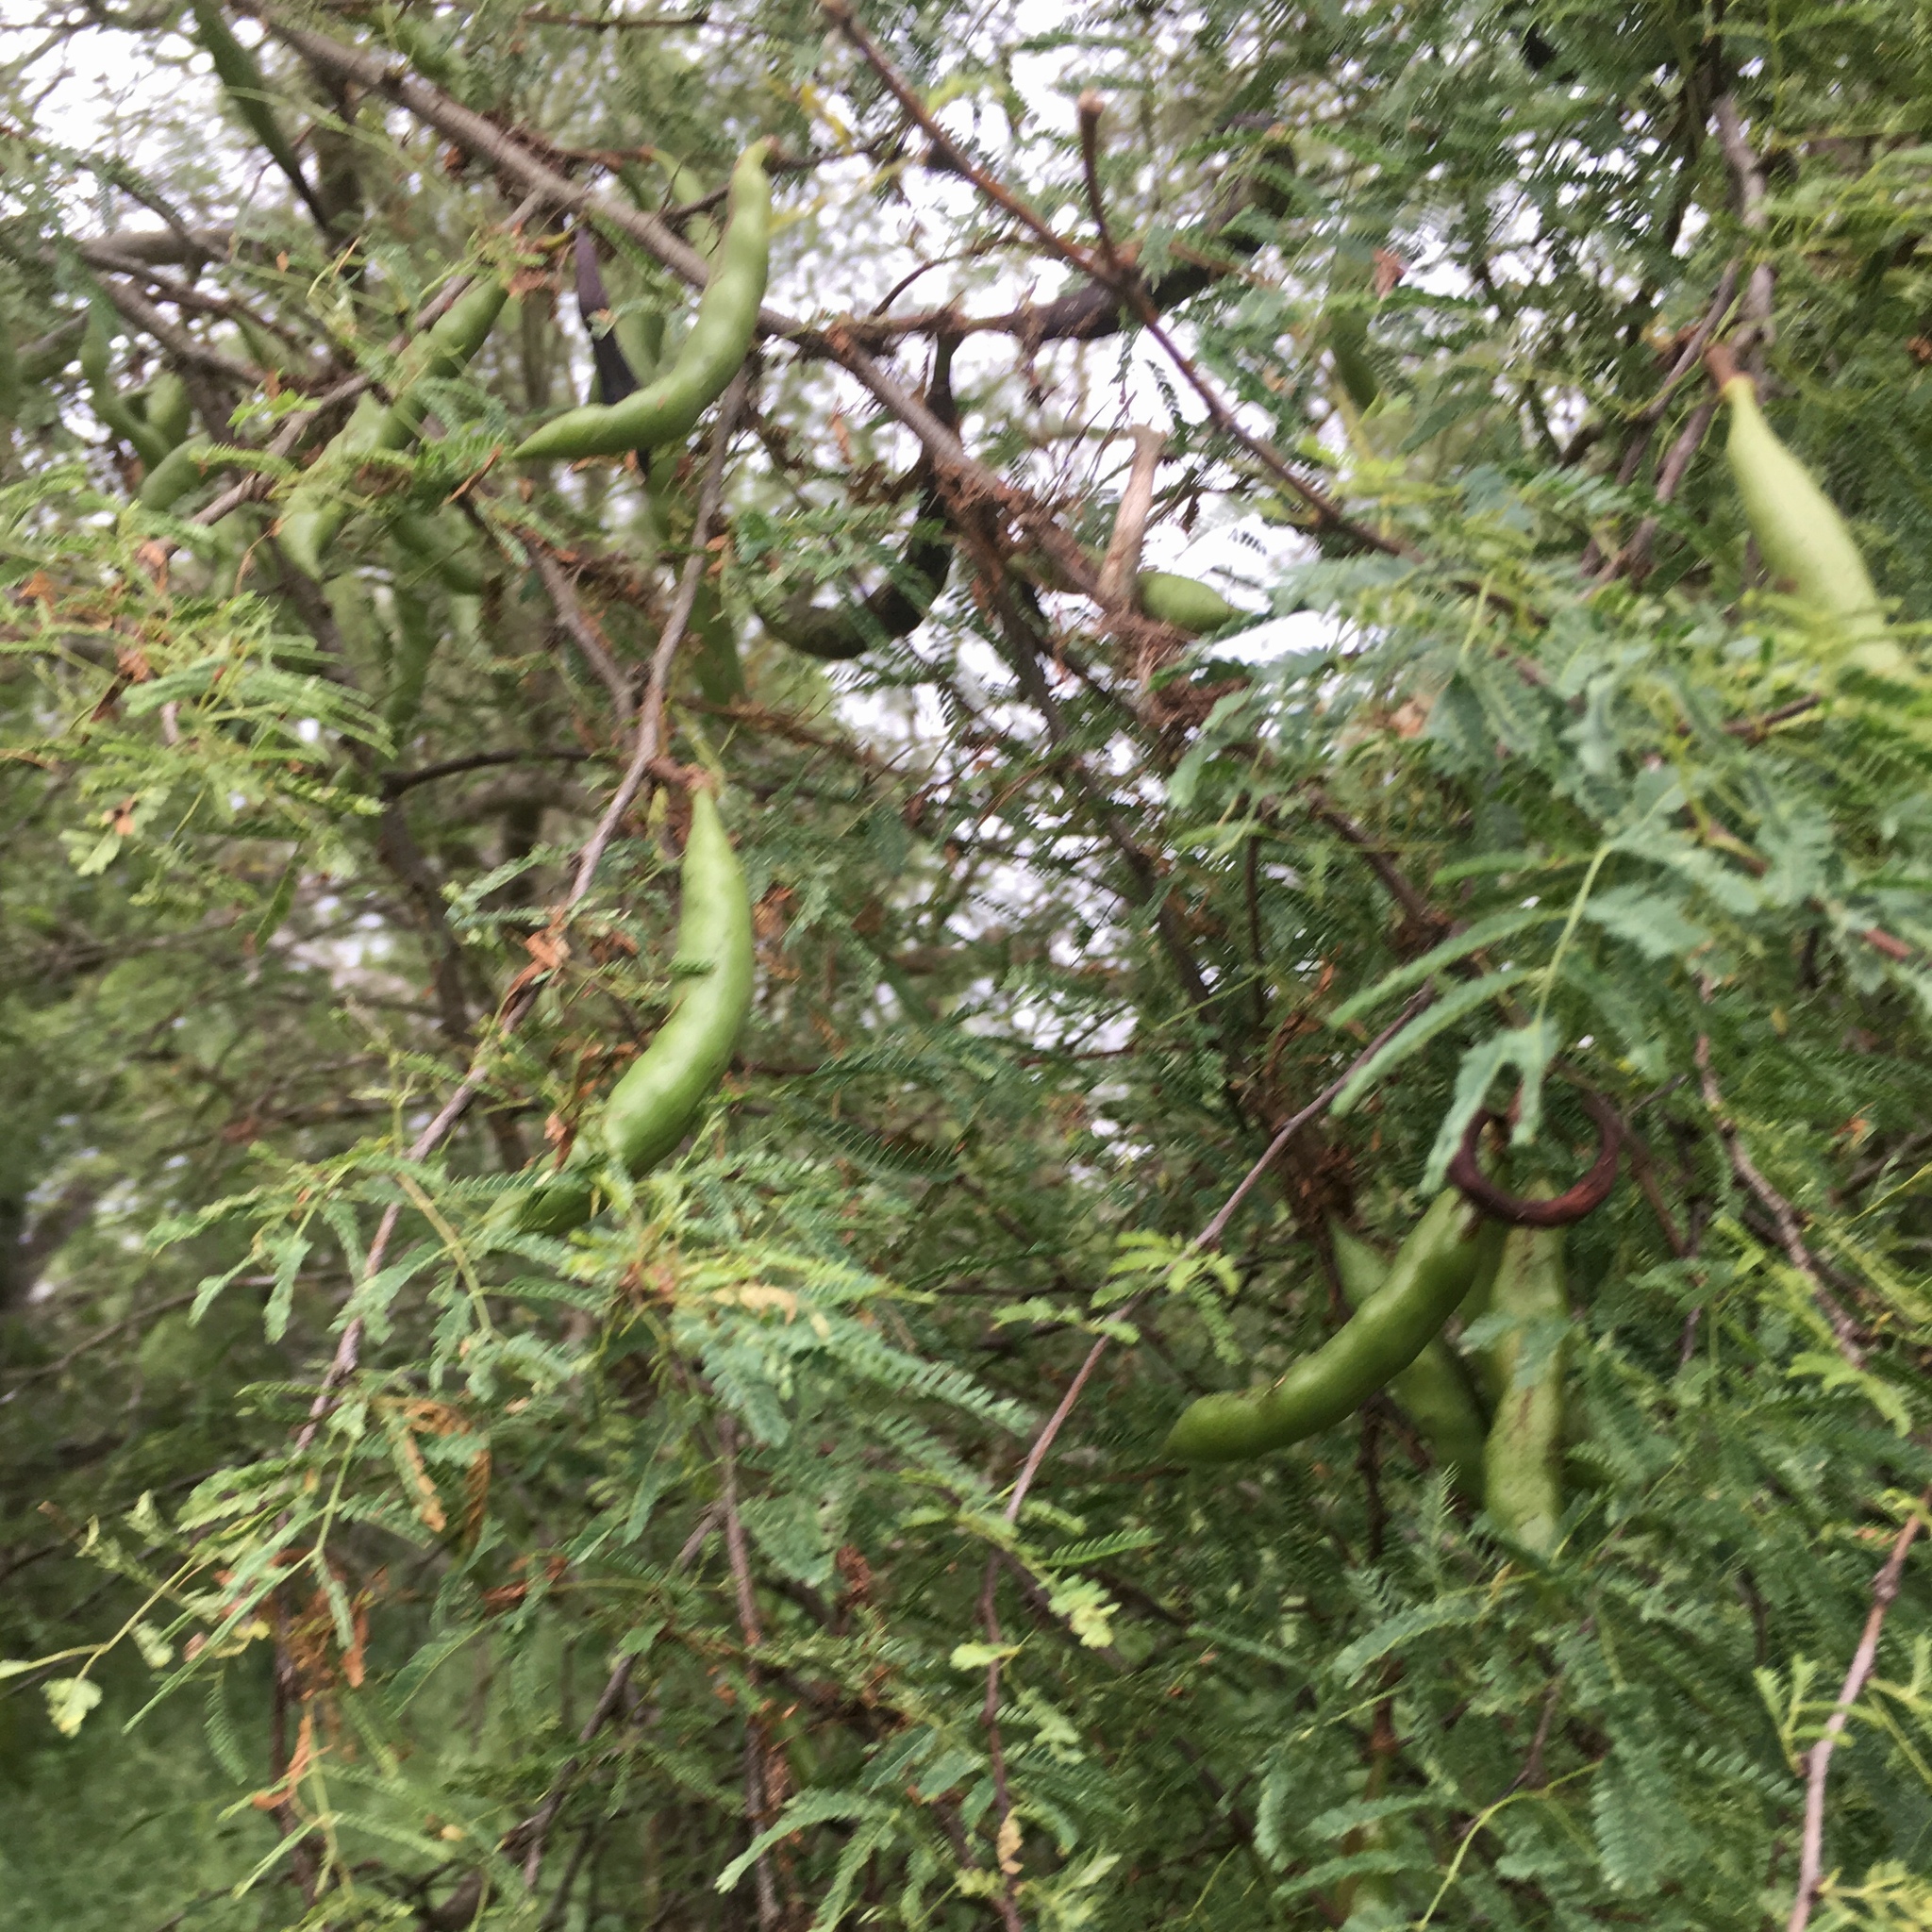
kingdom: Plantae
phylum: Tracheophyta
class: Magnoliopsida
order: Fabales
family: Fabaceae
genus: Vachellia
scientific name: Vachellia farnesiana
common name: Sweet acacia
